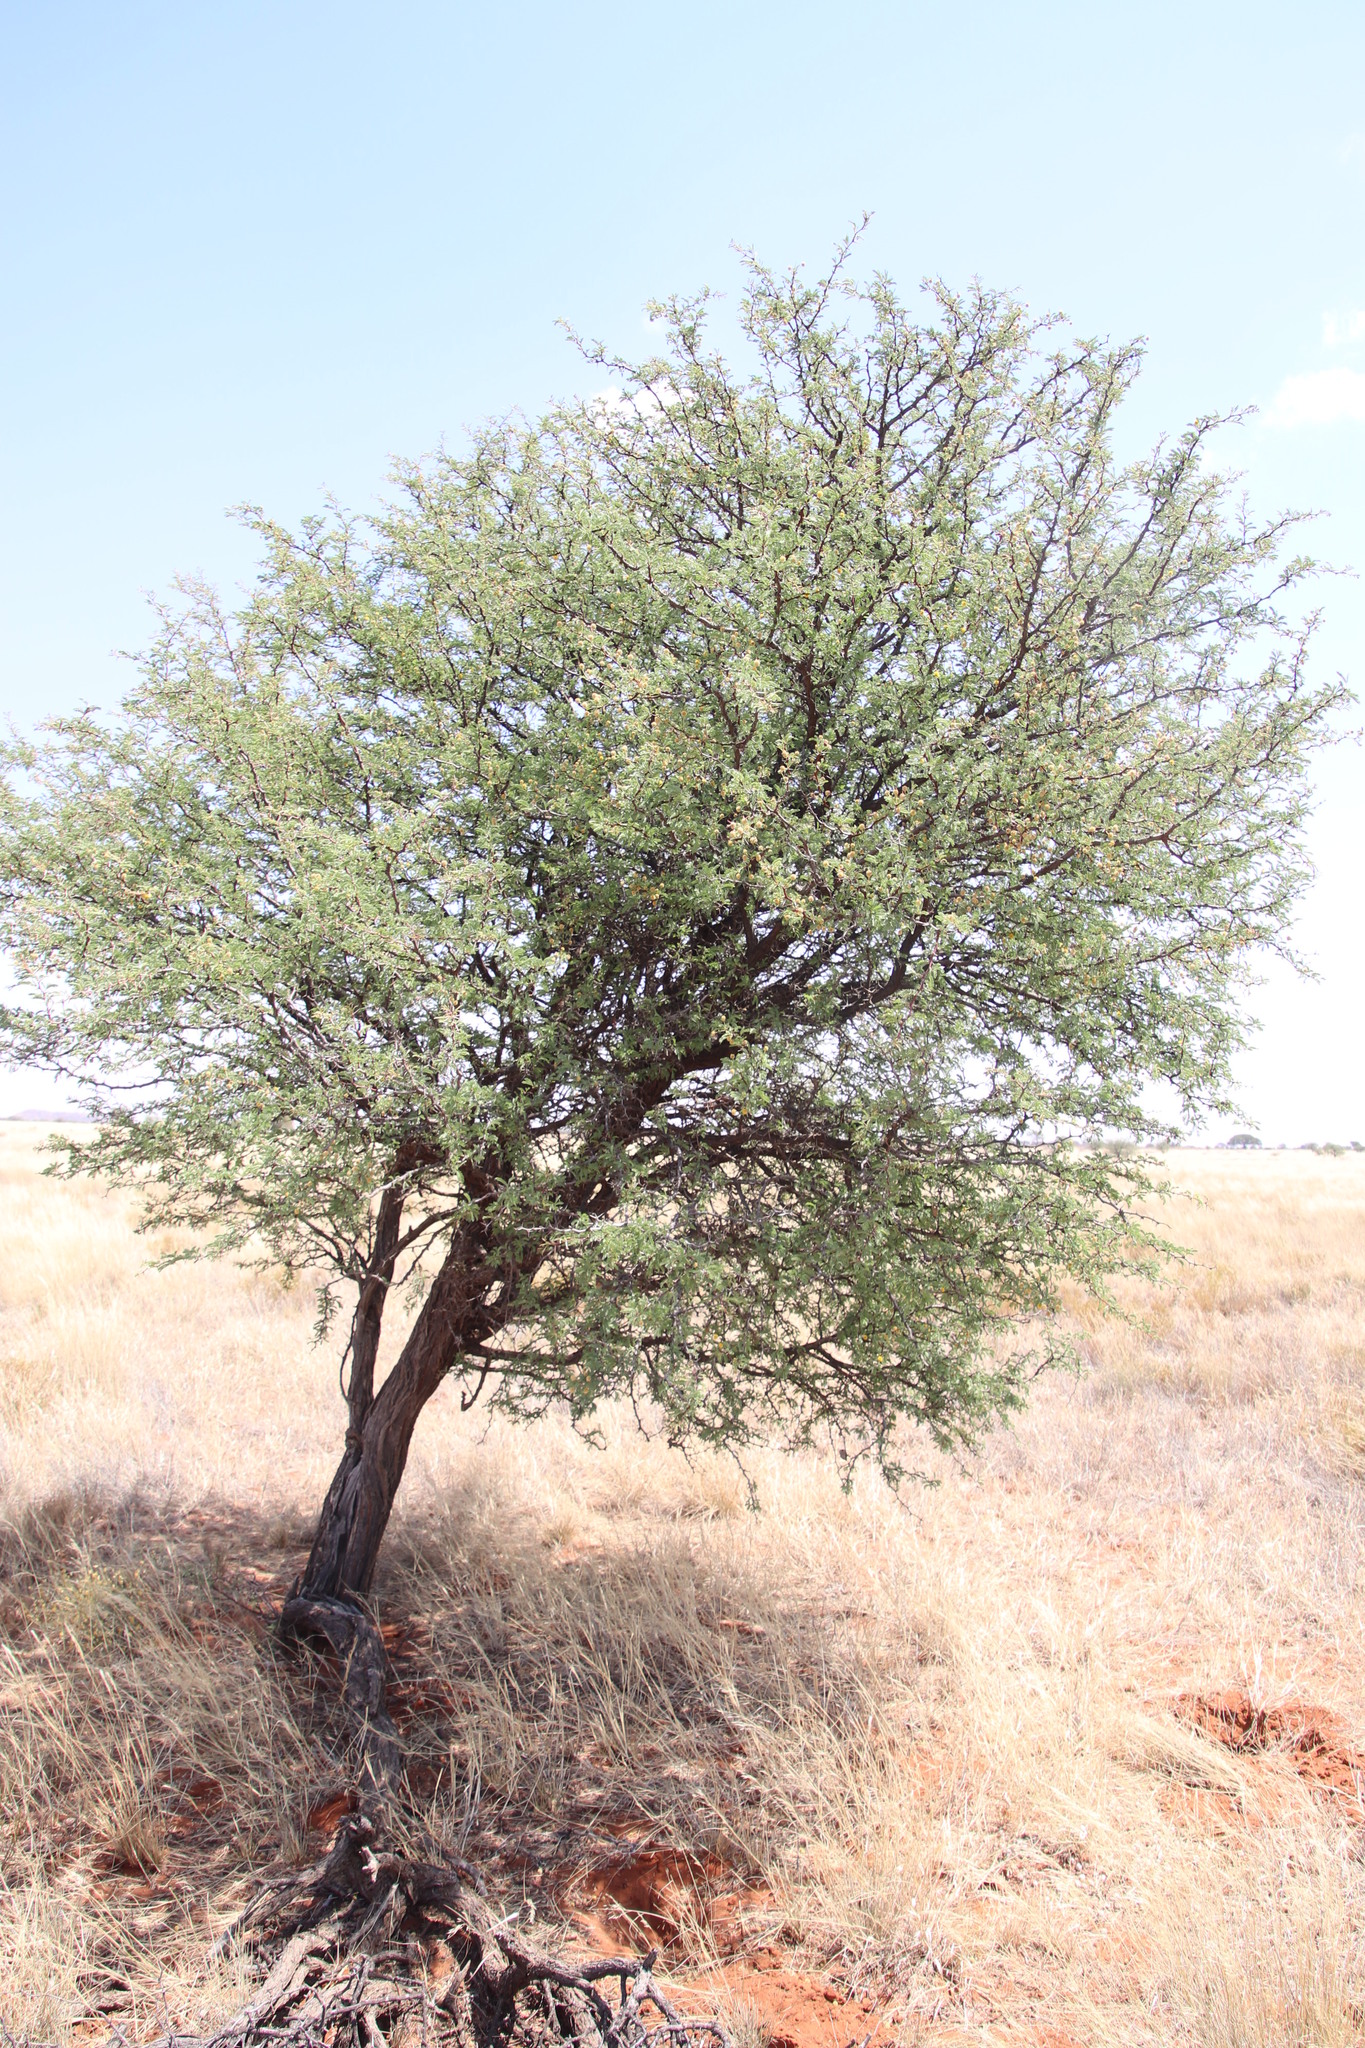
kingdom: Plantae
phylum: Tracheophyta
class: Magnoliopsida
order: Fabales
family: Fabaceae
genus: Vachellia
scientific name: Vachellia erioloba
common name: Camel thorn
